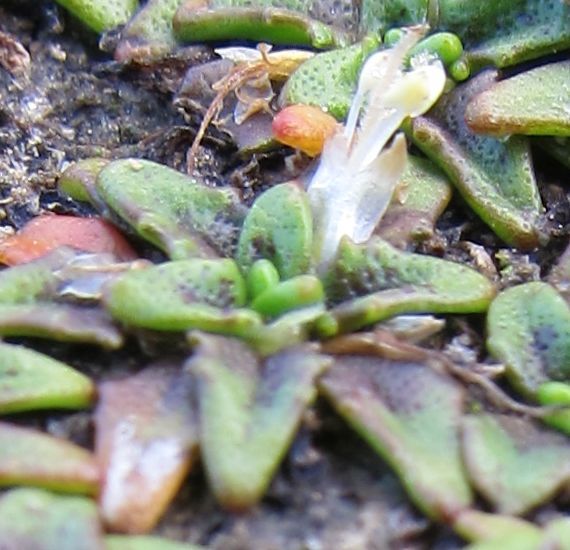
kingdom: Plantae
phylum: Tracheophyta
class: Magnoliopsida
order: Lamiales
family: Plantaginaceae
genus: Plantago
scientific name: Plantago triandra
